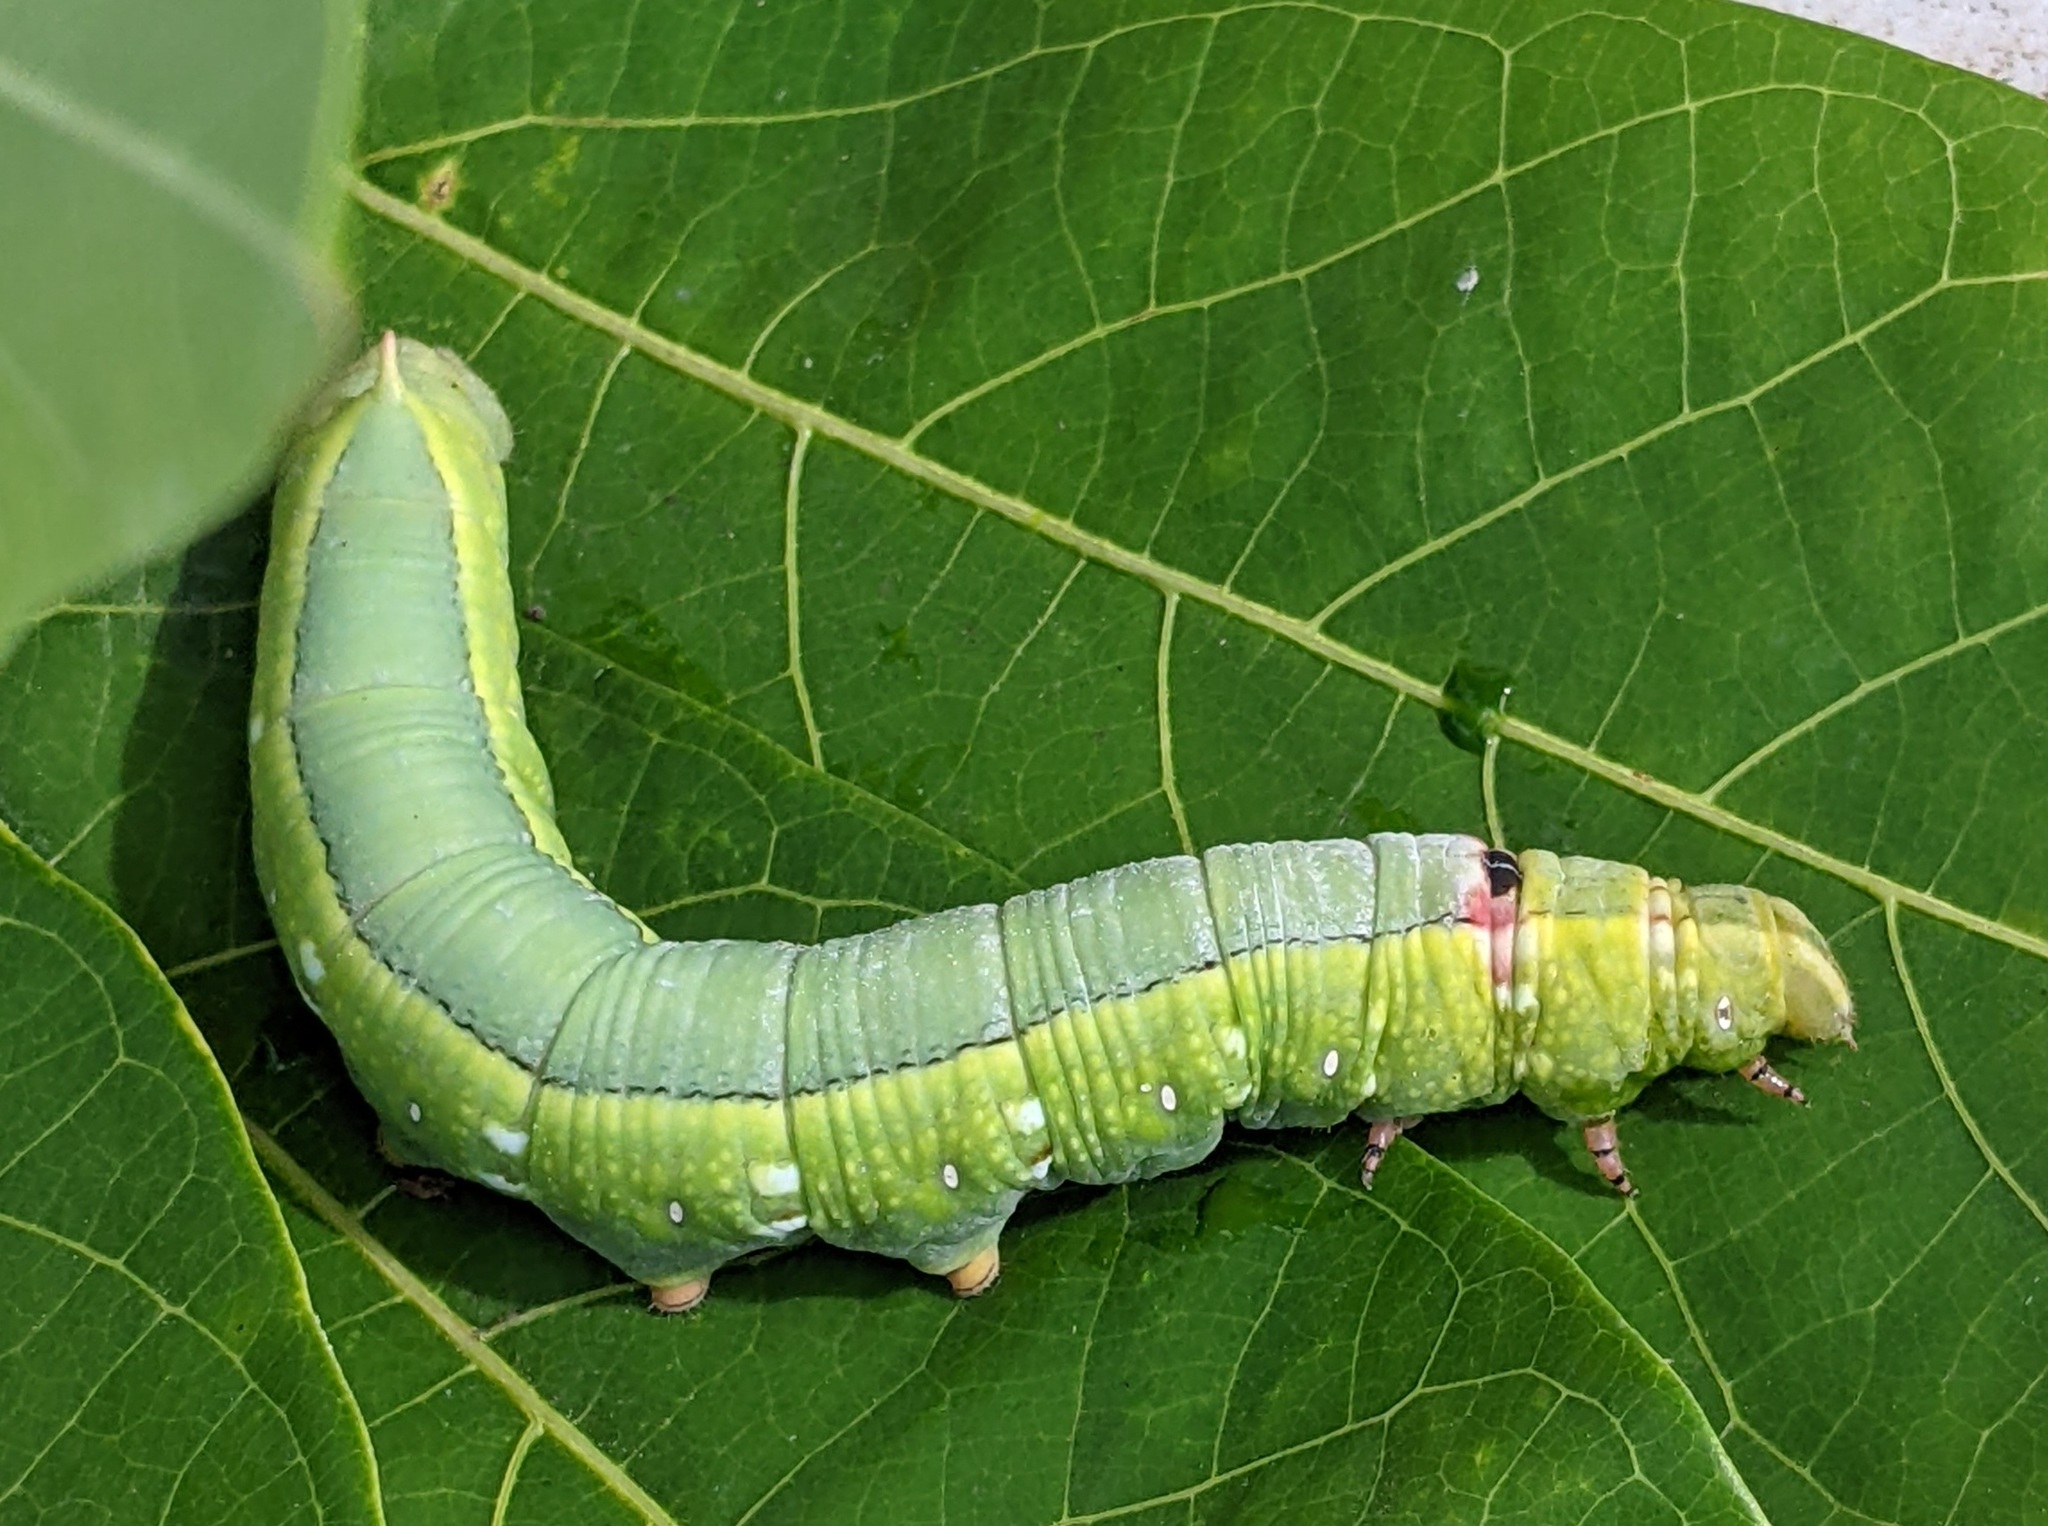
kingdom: Animalia
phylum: Arthropoda
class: Insecta
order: Lepidoptera
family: Sphingidae
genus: Erinnyis
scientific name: Erinnyis ello
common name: Ello sphinx
